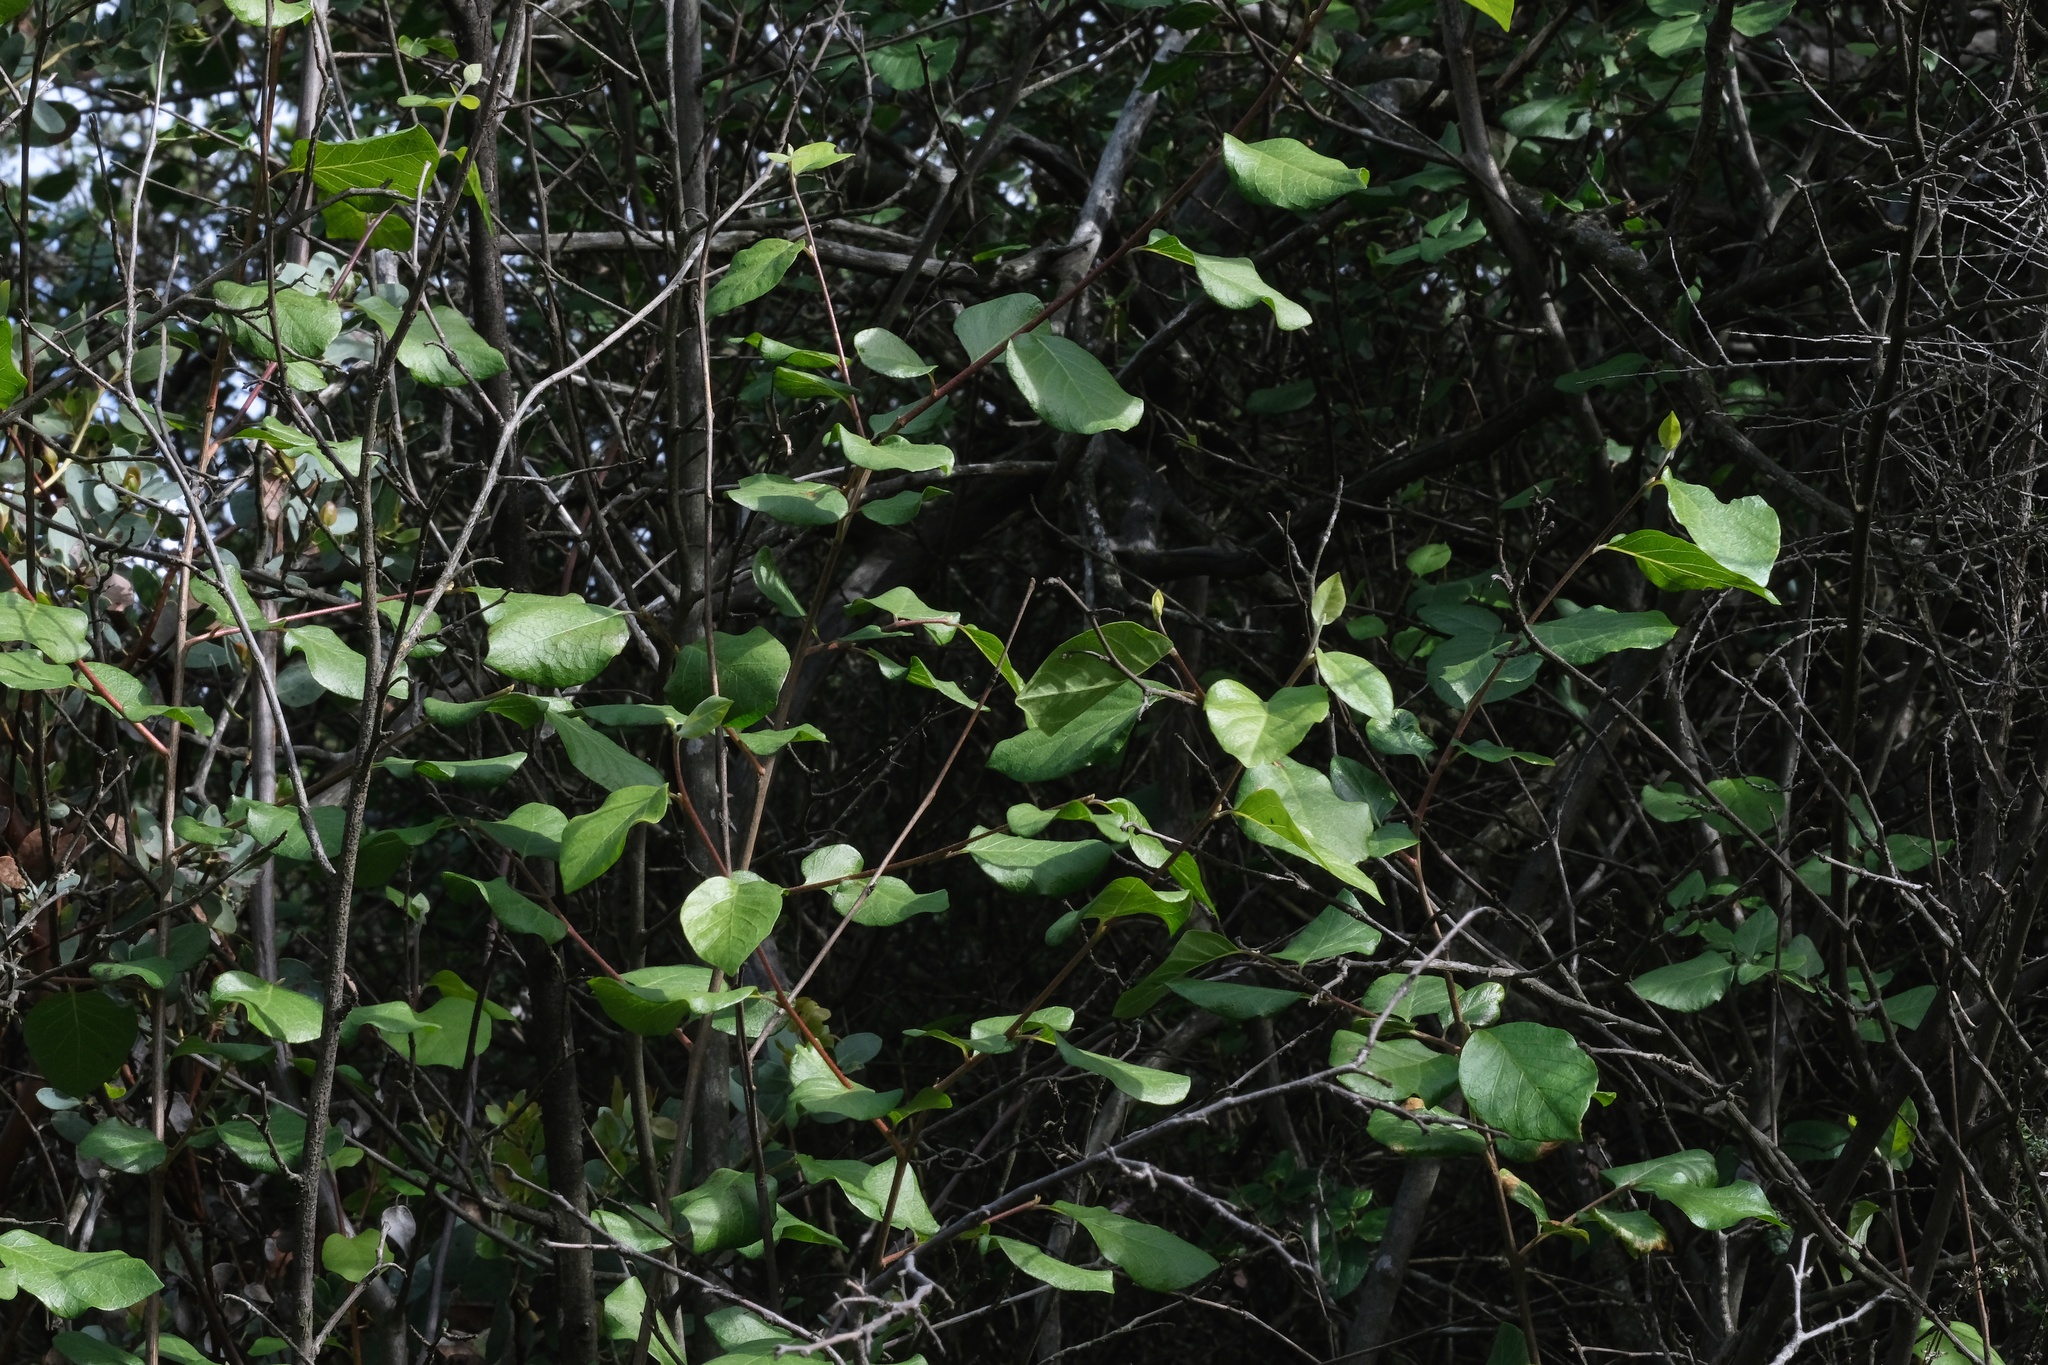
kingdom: Plantae
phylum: Tracheophyta
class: Magnoliopsida
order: Ericales
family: Styracaceae
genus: Styrax
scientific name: Styrax redivivus
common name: California styrax
